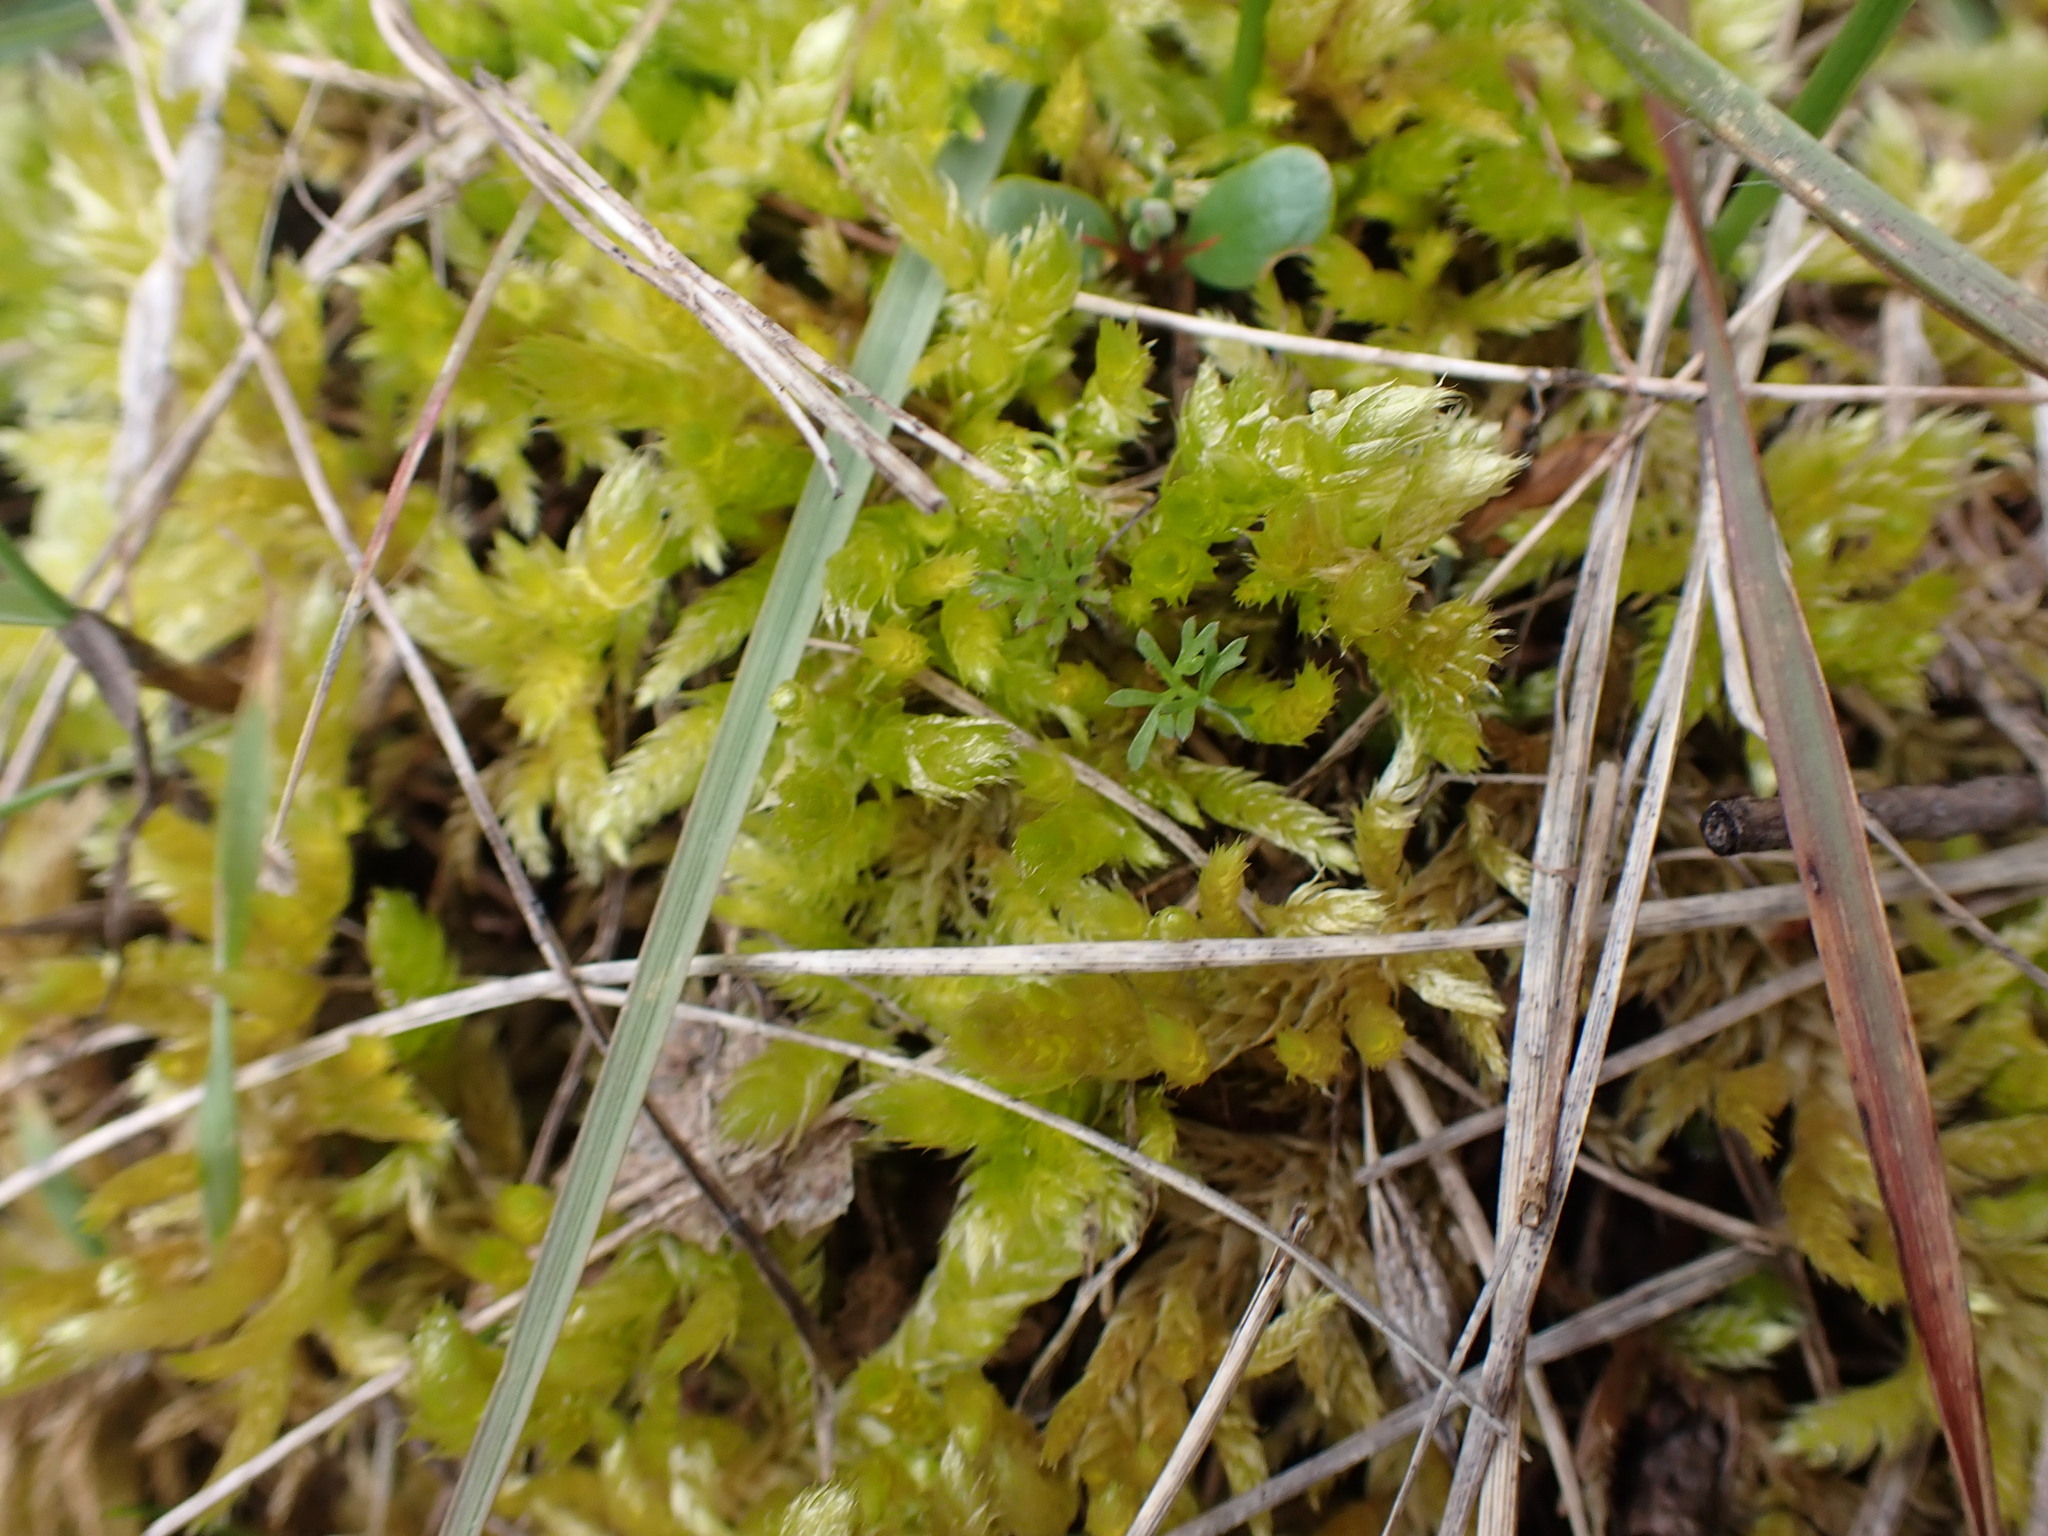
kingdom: Plantae
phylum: Bryophyta
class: Bryopsida
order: Hypnales
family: Brachytheciaceae
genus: Homalothecium
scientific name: Homalothecium megaptilum
